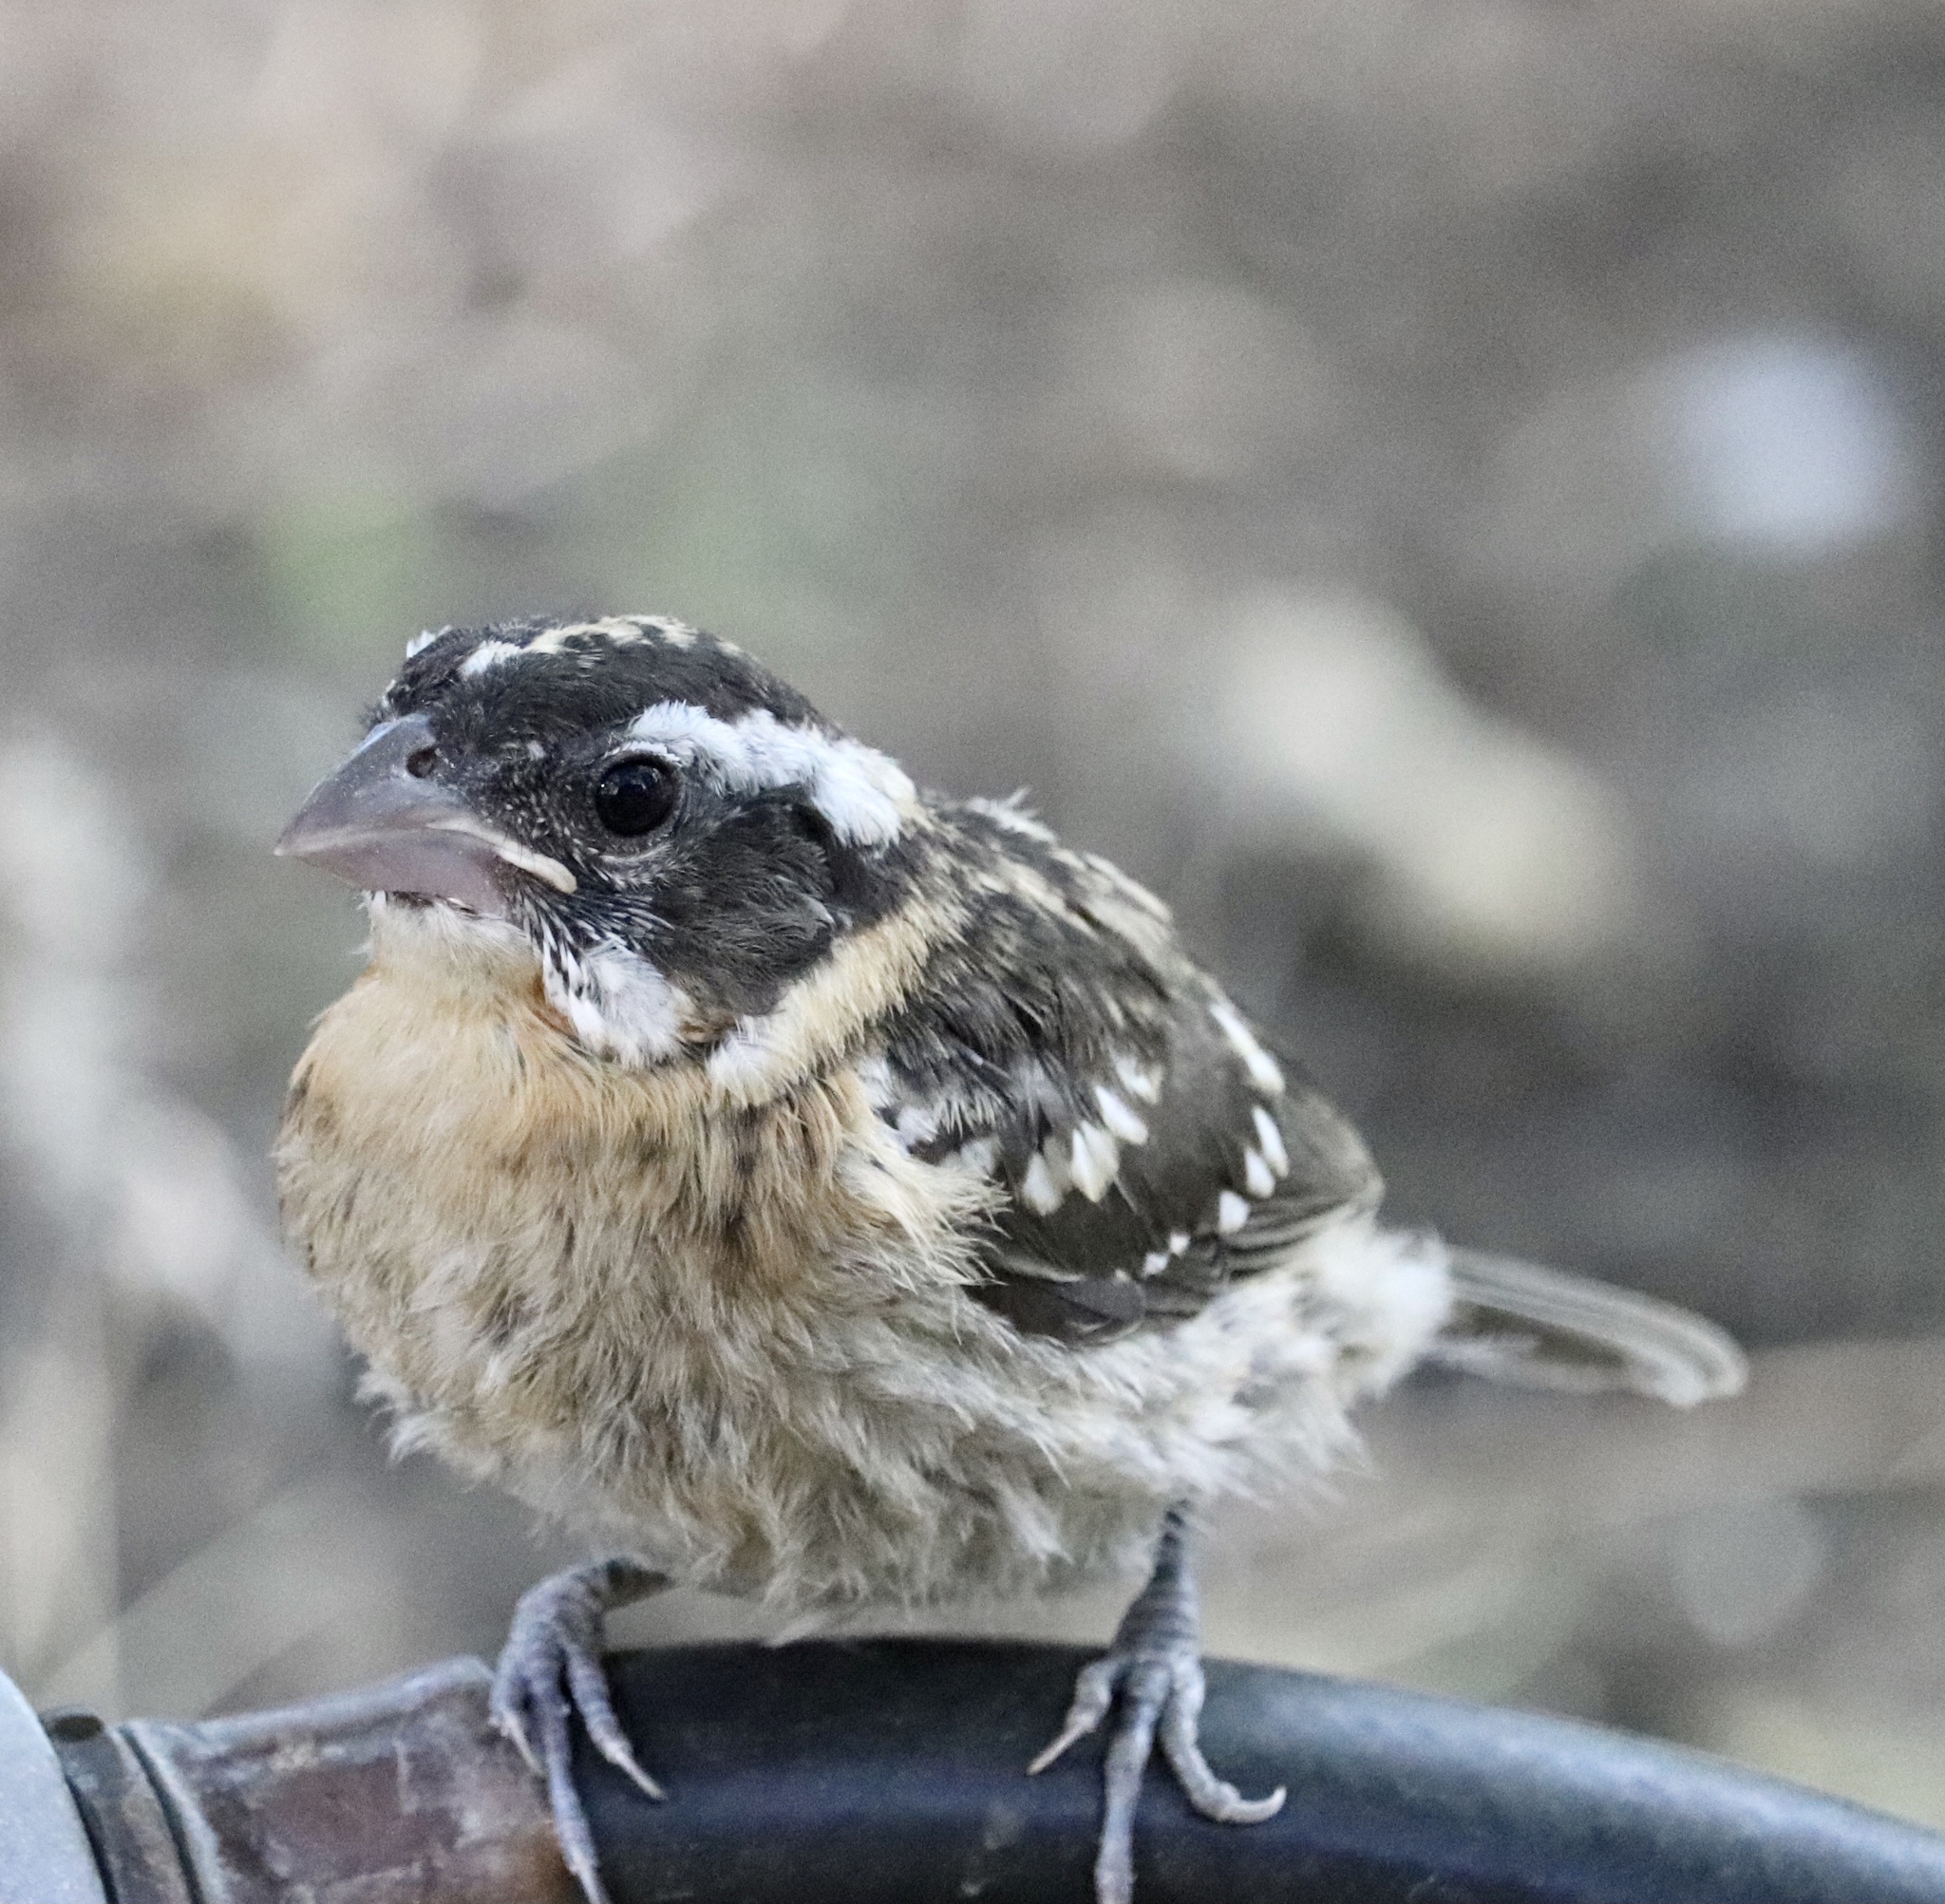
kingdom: Animalia
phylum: Chordata
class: Aves
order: Passeriformes
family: Cardinalidae
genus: Pheucticus
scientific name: Pheucticus melanocephalus
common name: Black-headed grosbeak
